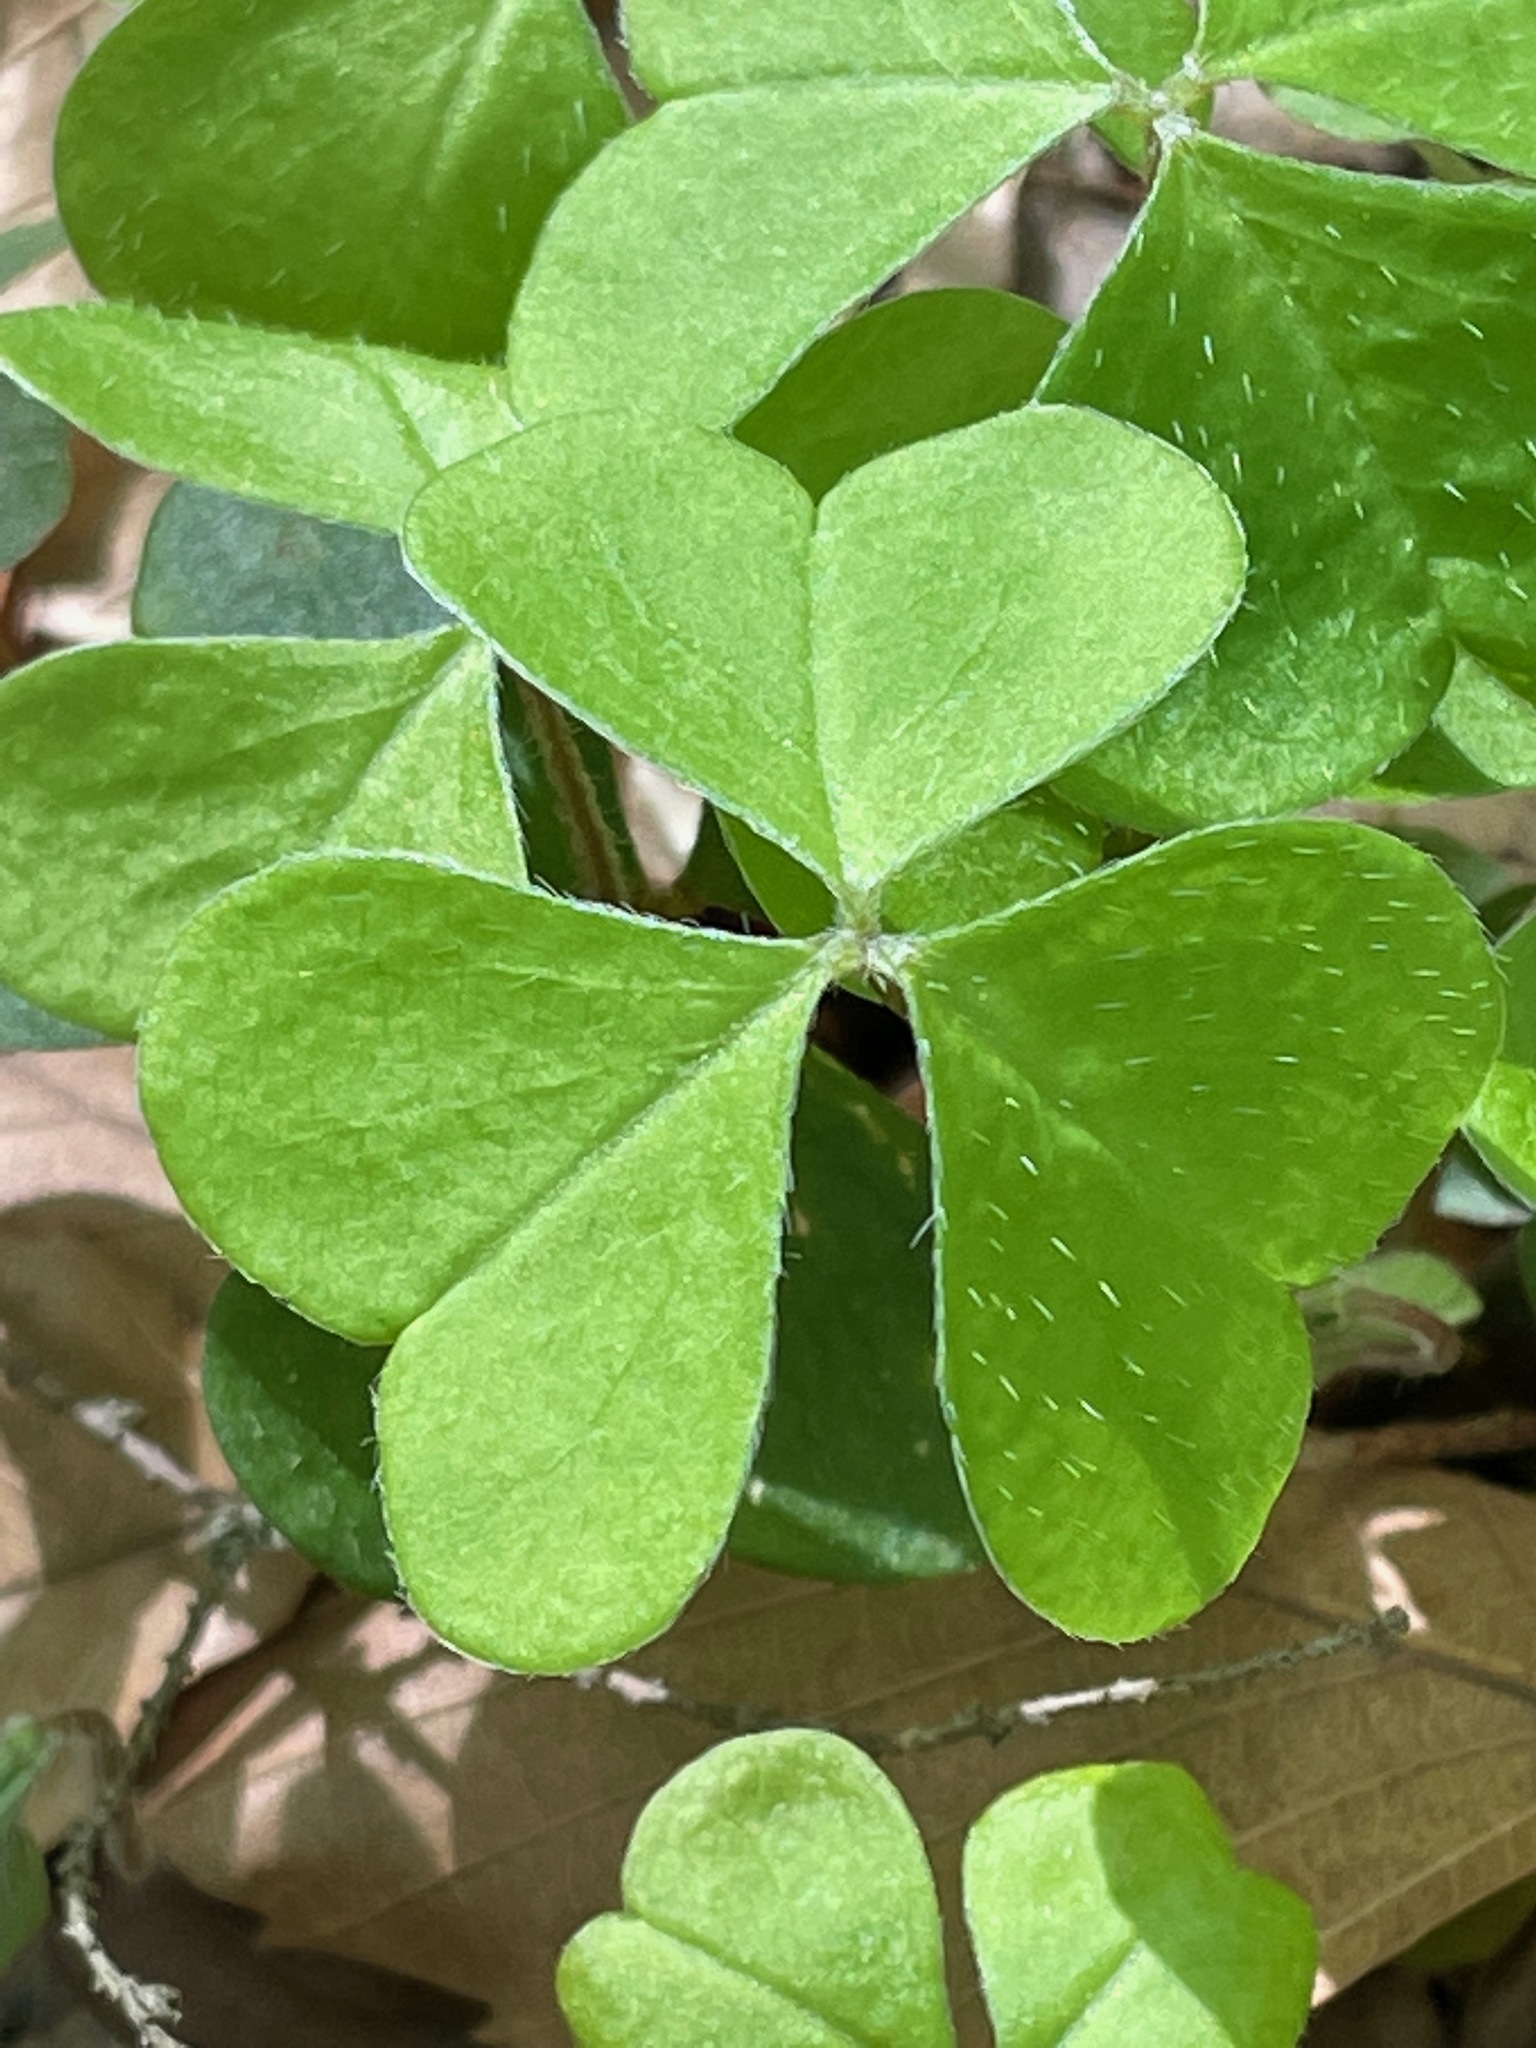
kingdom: Plantae
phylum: Tracheophyta
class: Magnoliopsida
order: Oxalidales
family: Oxalidaceae
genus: Oxalis
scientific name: Oxalis montana
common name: American wood-sorrel
